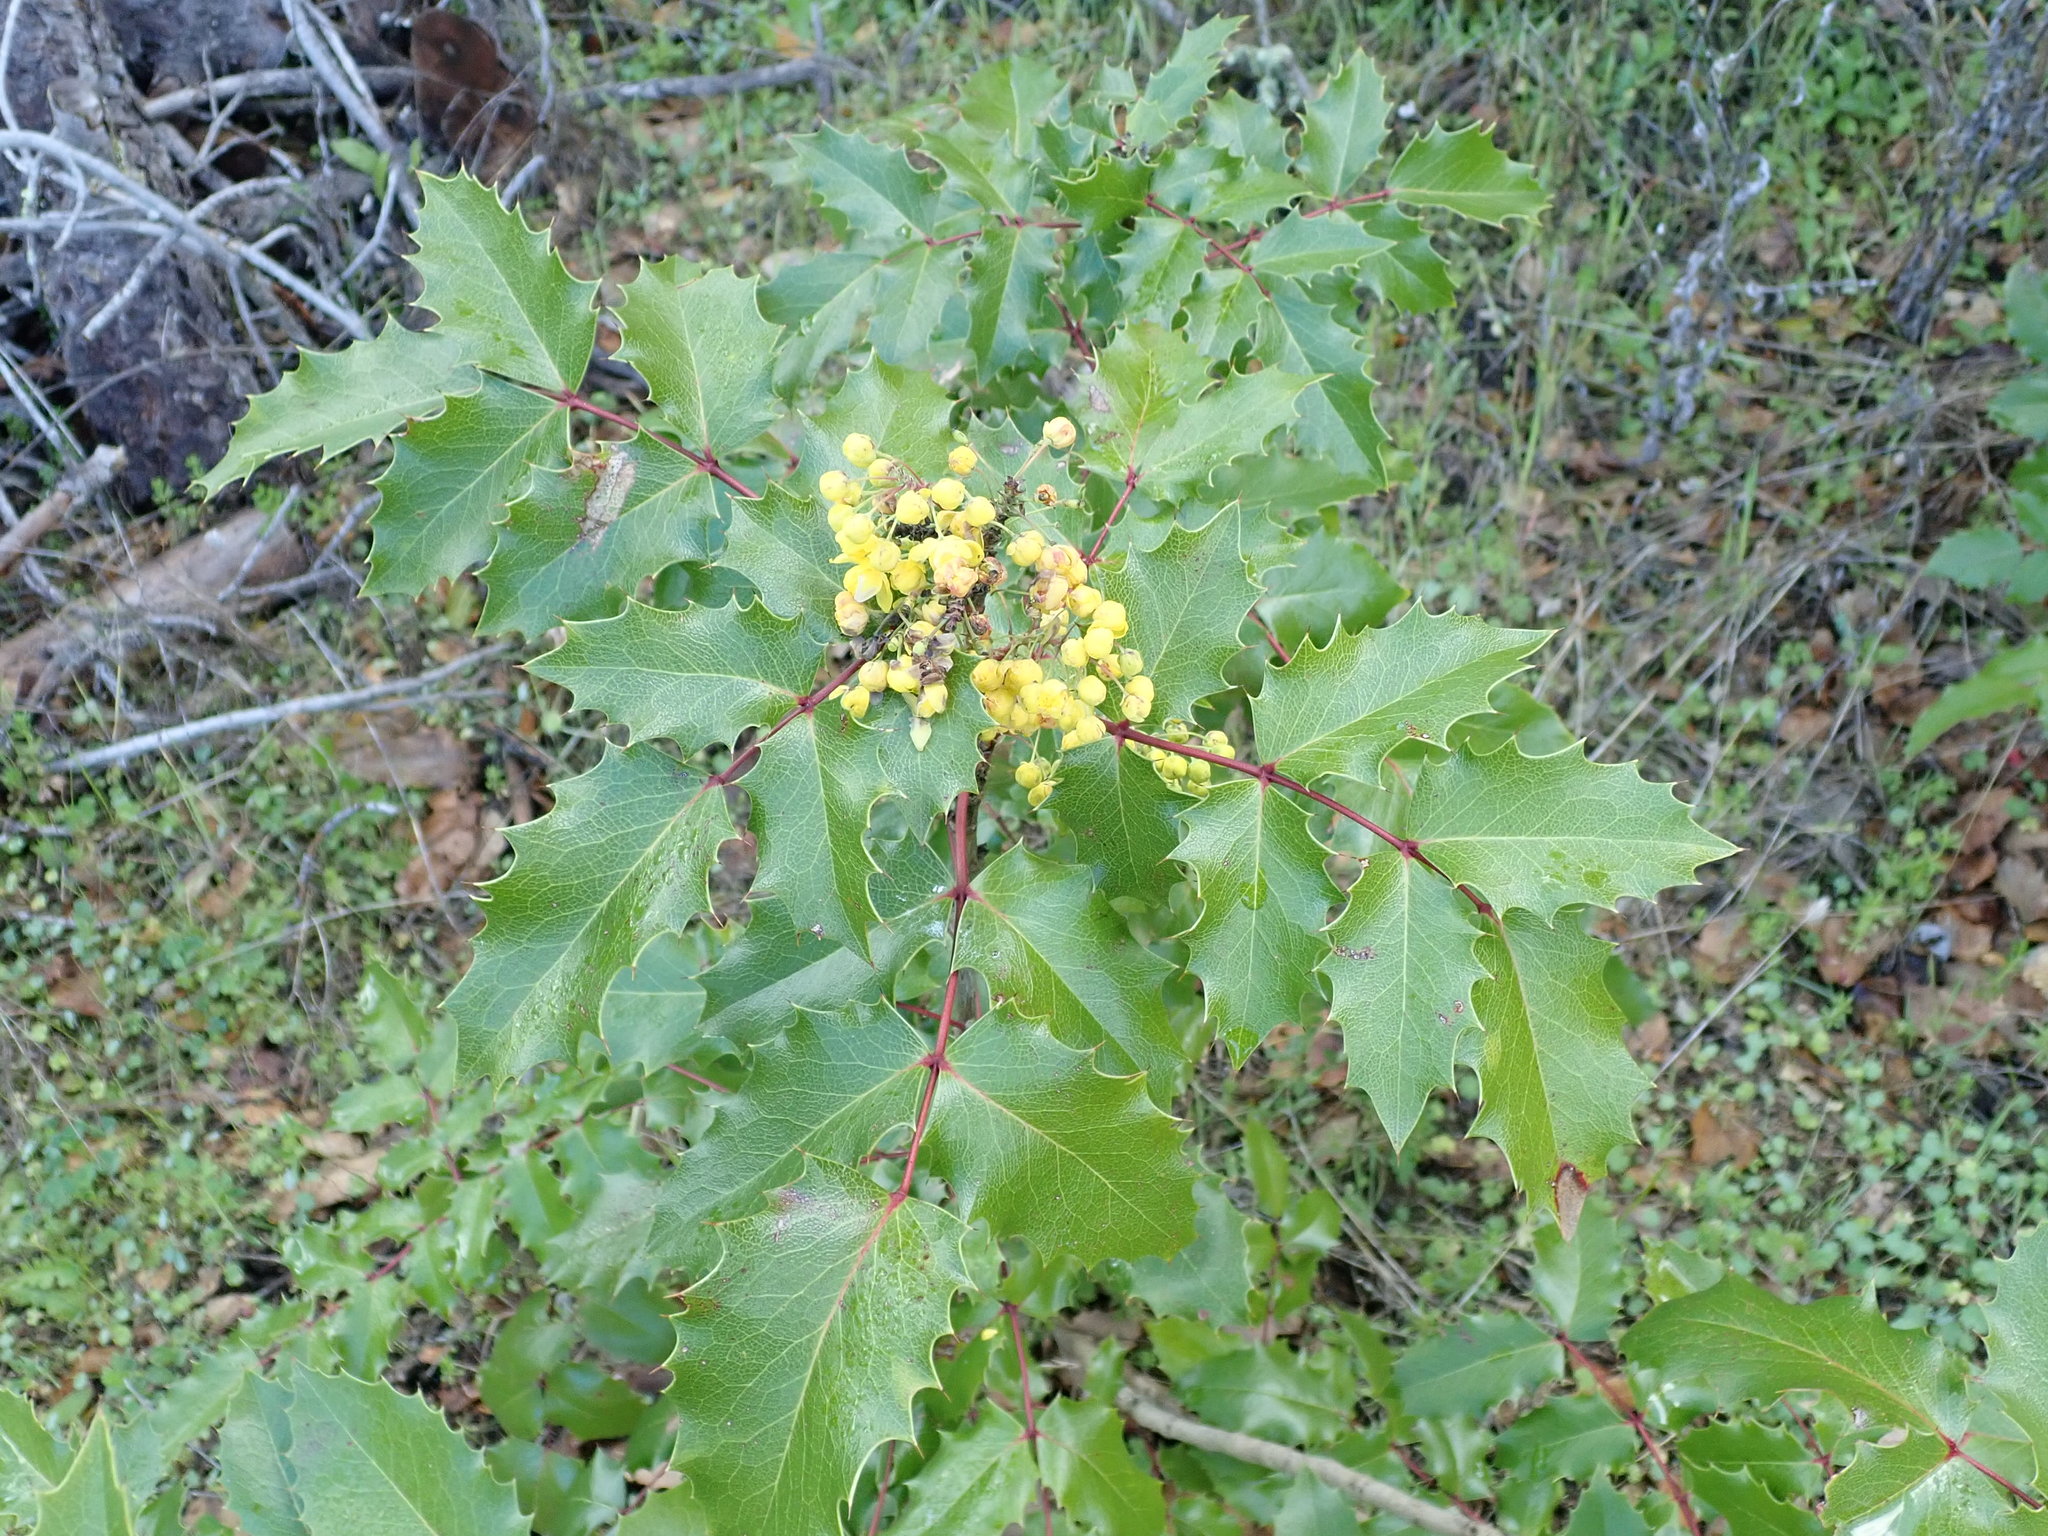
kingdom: Plantae
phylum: Tracheophyta
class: Magnoliopsida
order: Ranunculales
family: Berberidaceae
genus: Mahonia
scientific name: Mahonia
